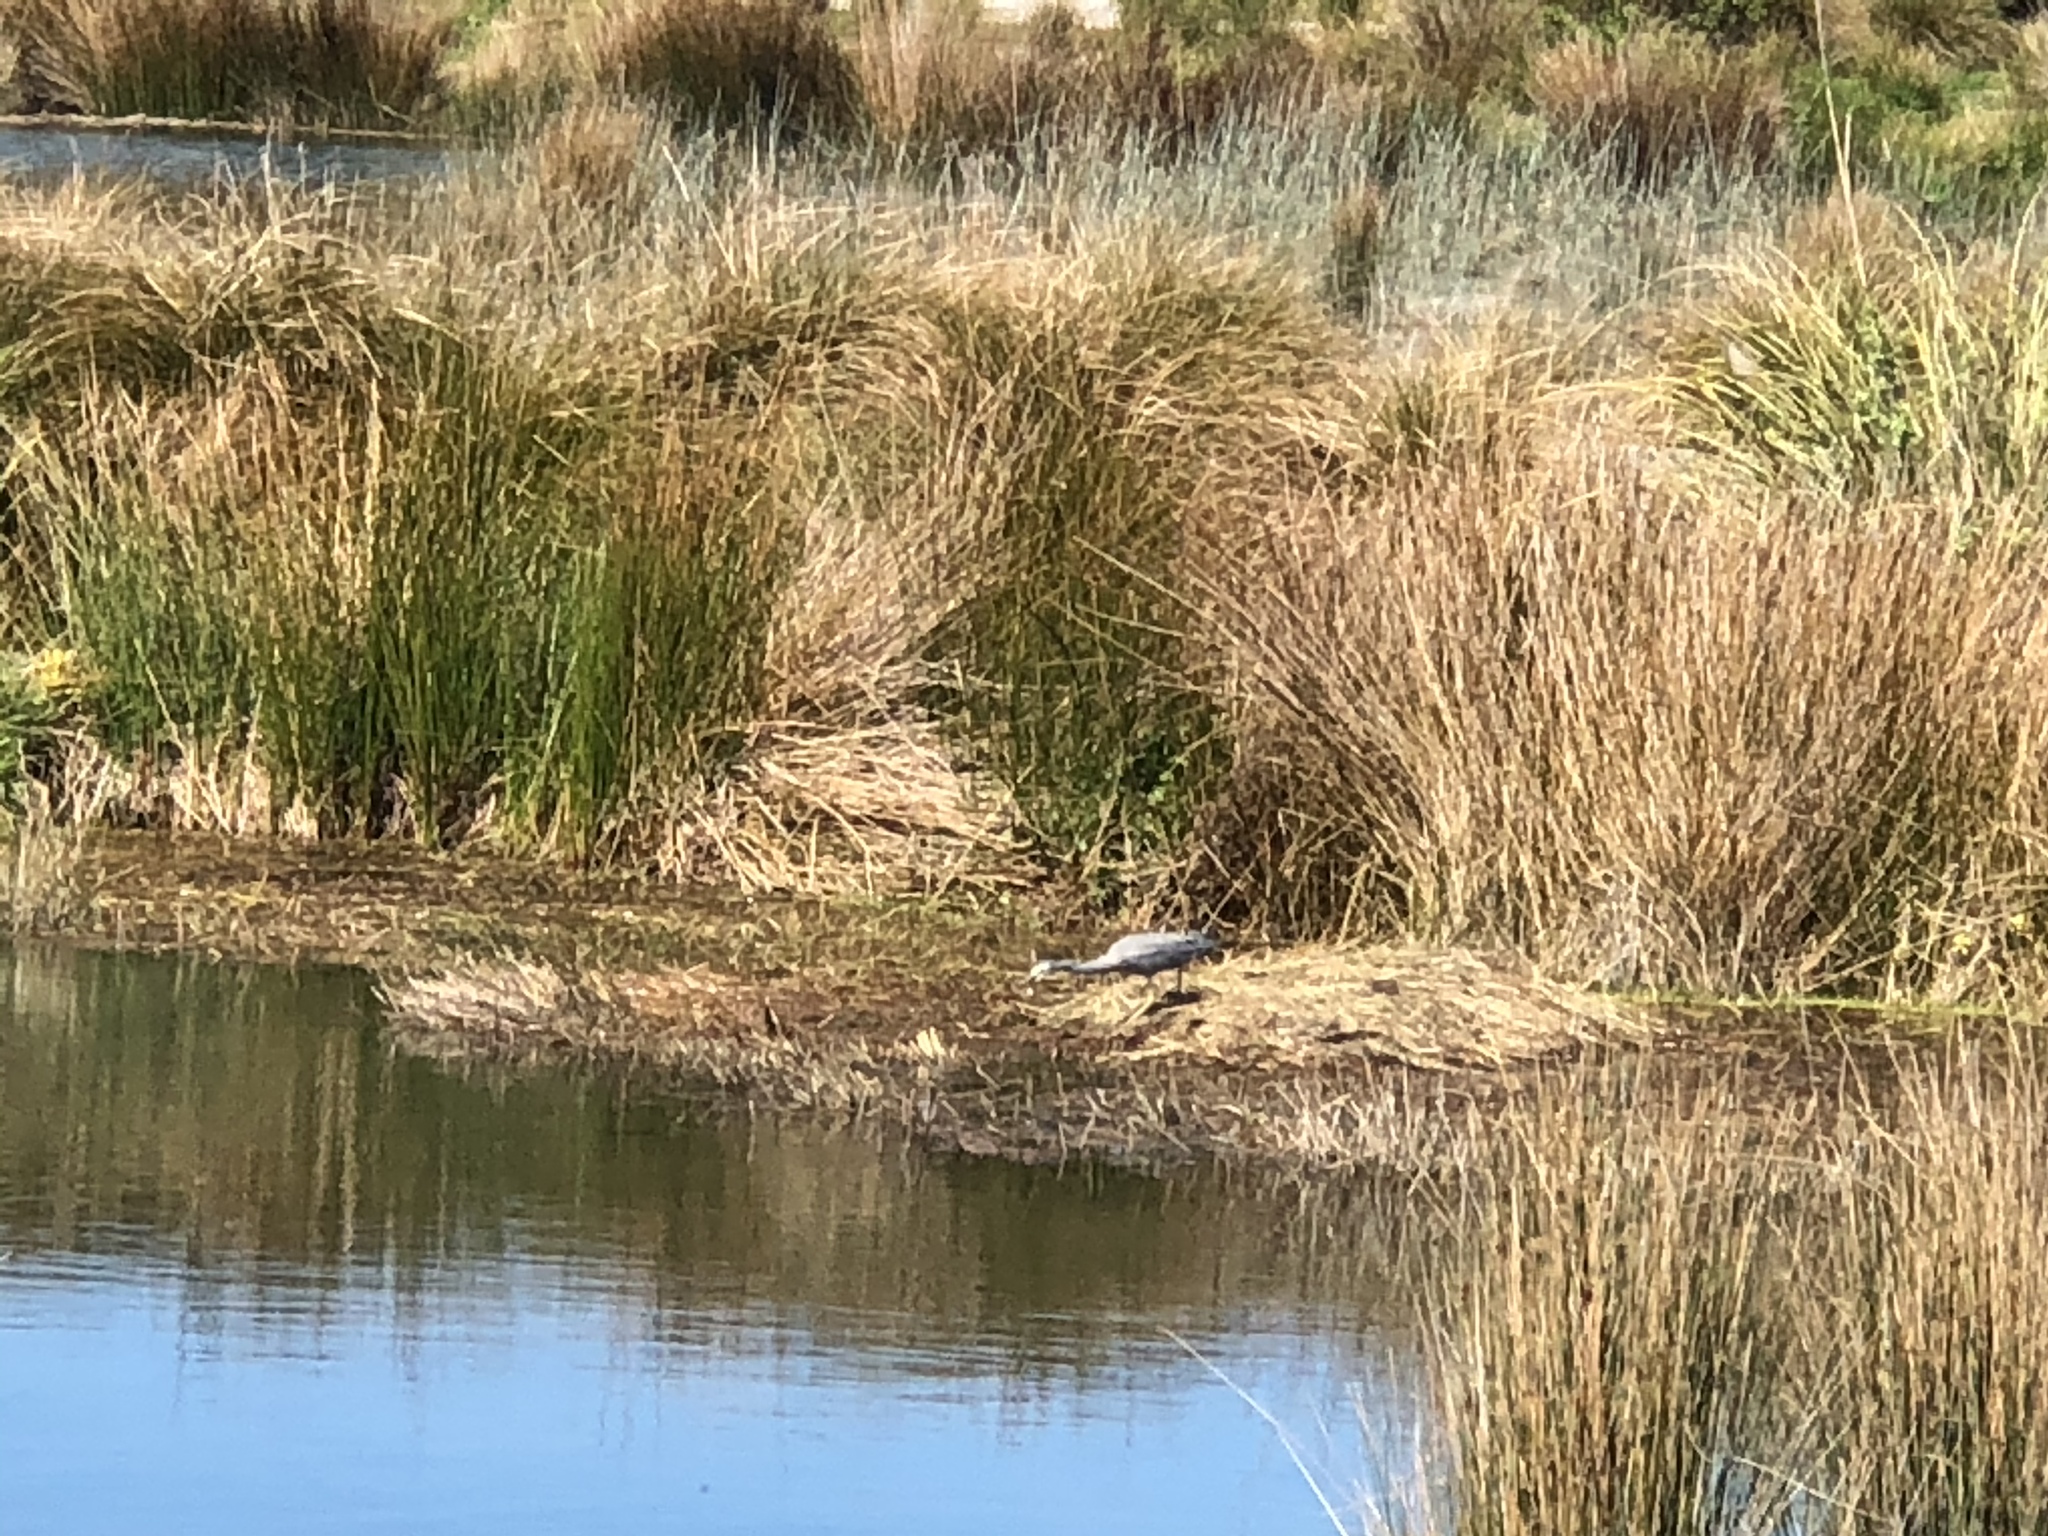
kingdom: Animalia
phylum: Chordata
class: Aves
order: Pelecaniformes
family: Ardeidae
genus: Egretta
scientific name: Egretta novaehollandiae
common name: White-faced heron
